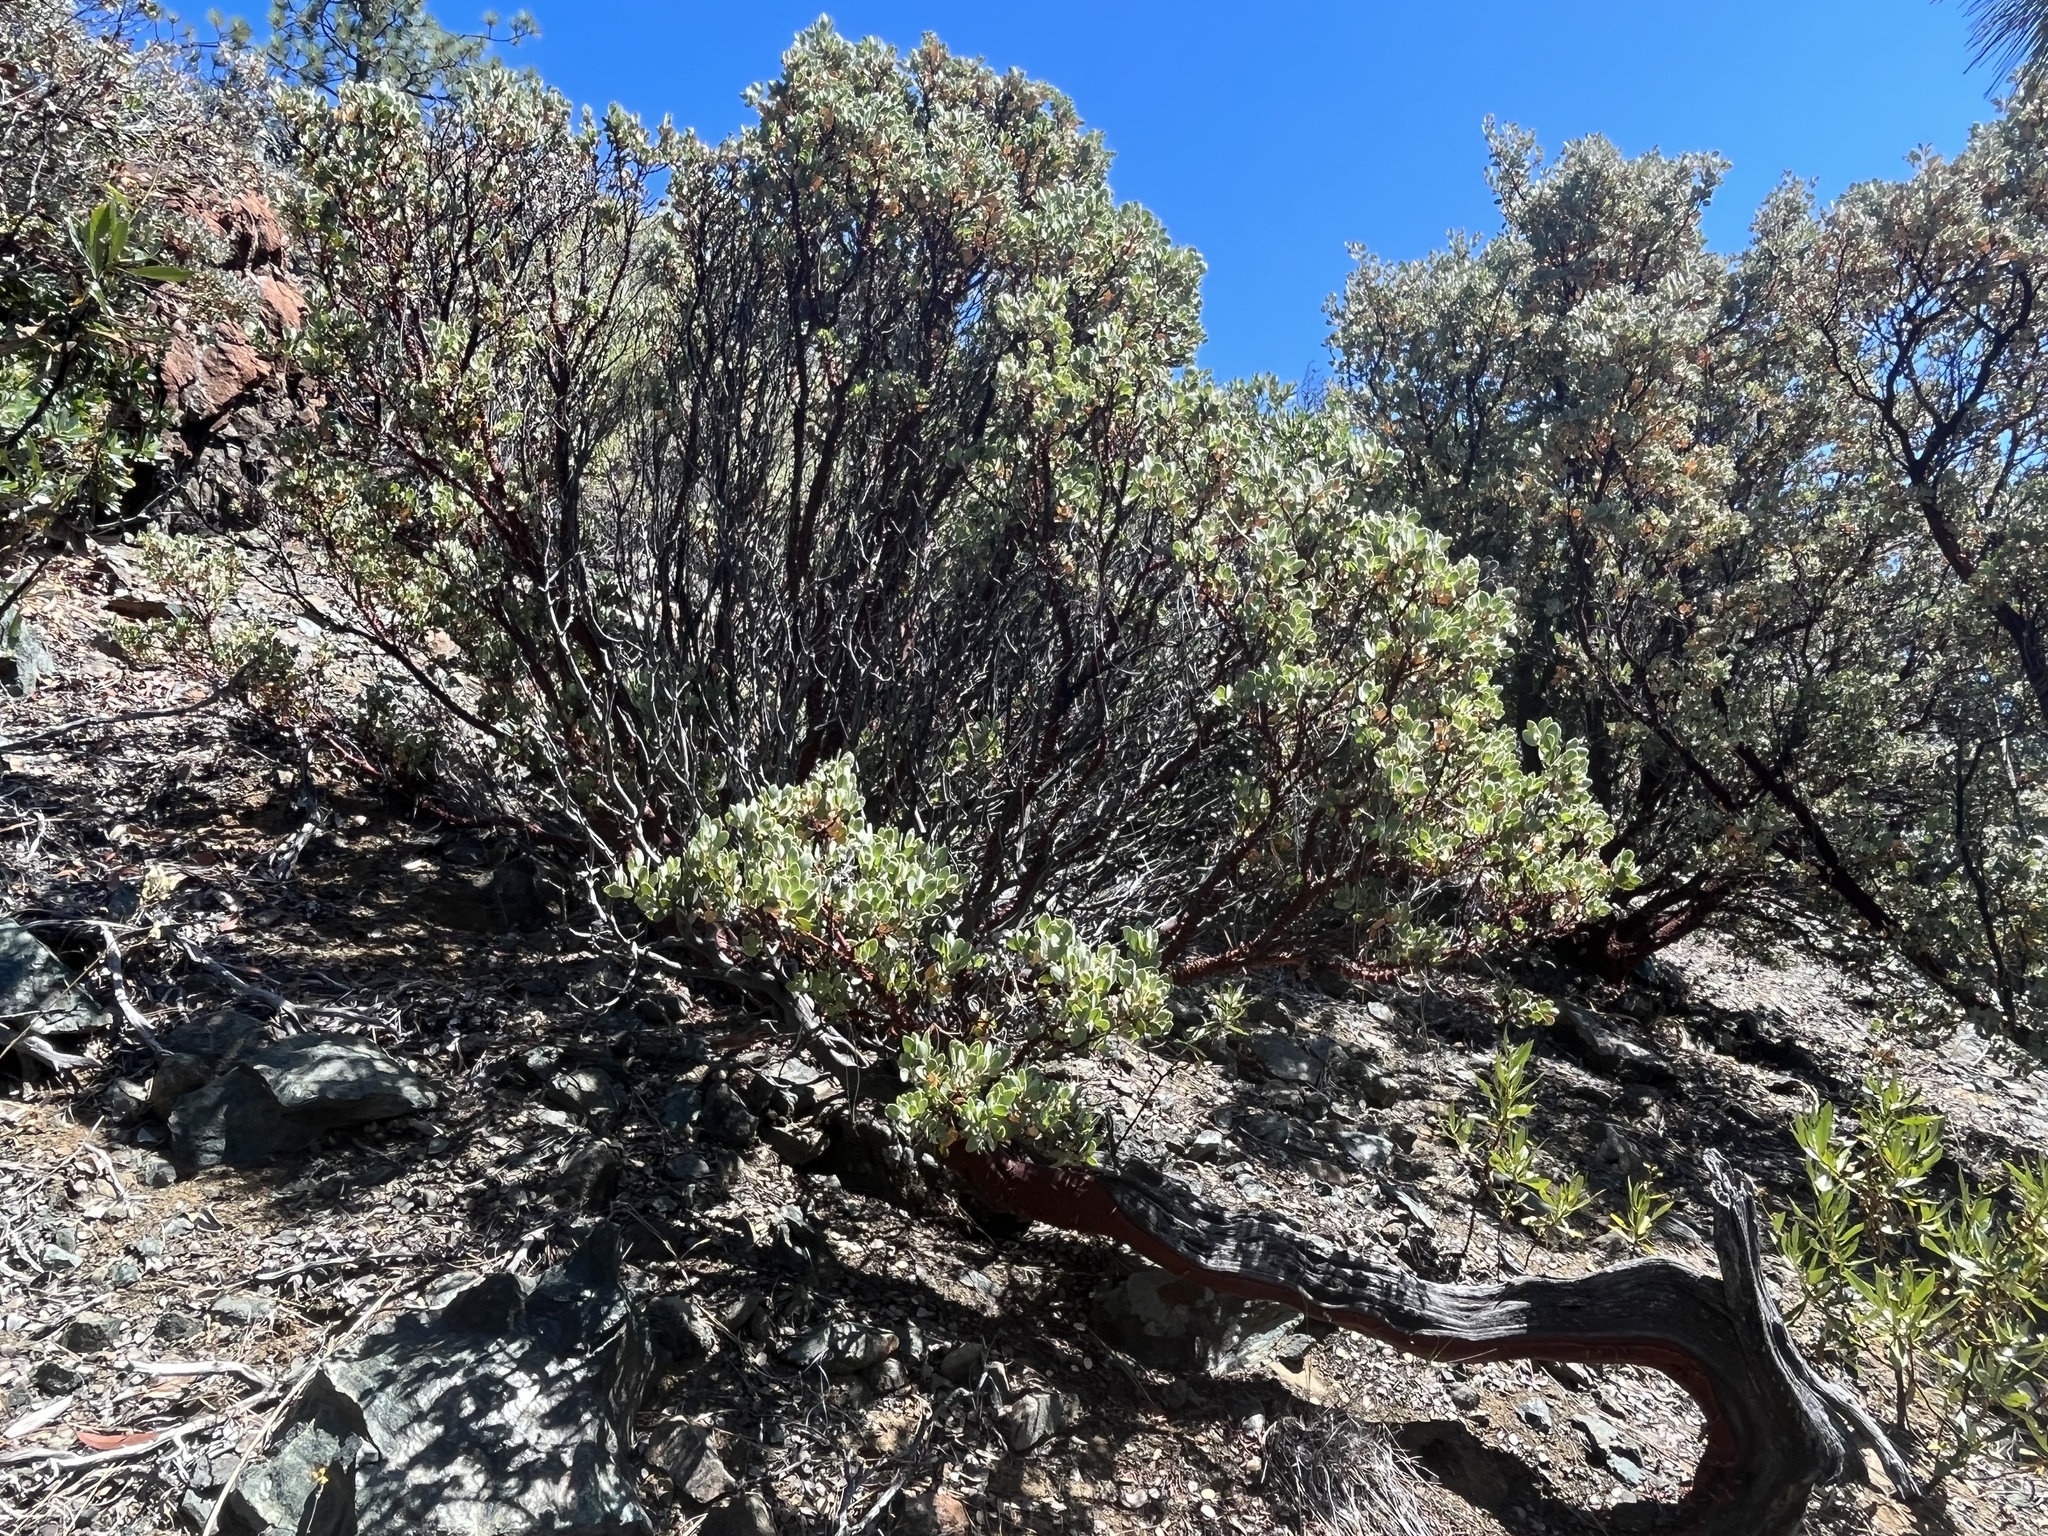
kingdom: Plantae
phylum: Tracheophyta
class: Magnoliopsida
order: Ericales
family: Ericaceae
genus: Arctostaphylos
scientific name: Arctostaphylos obispoensis
